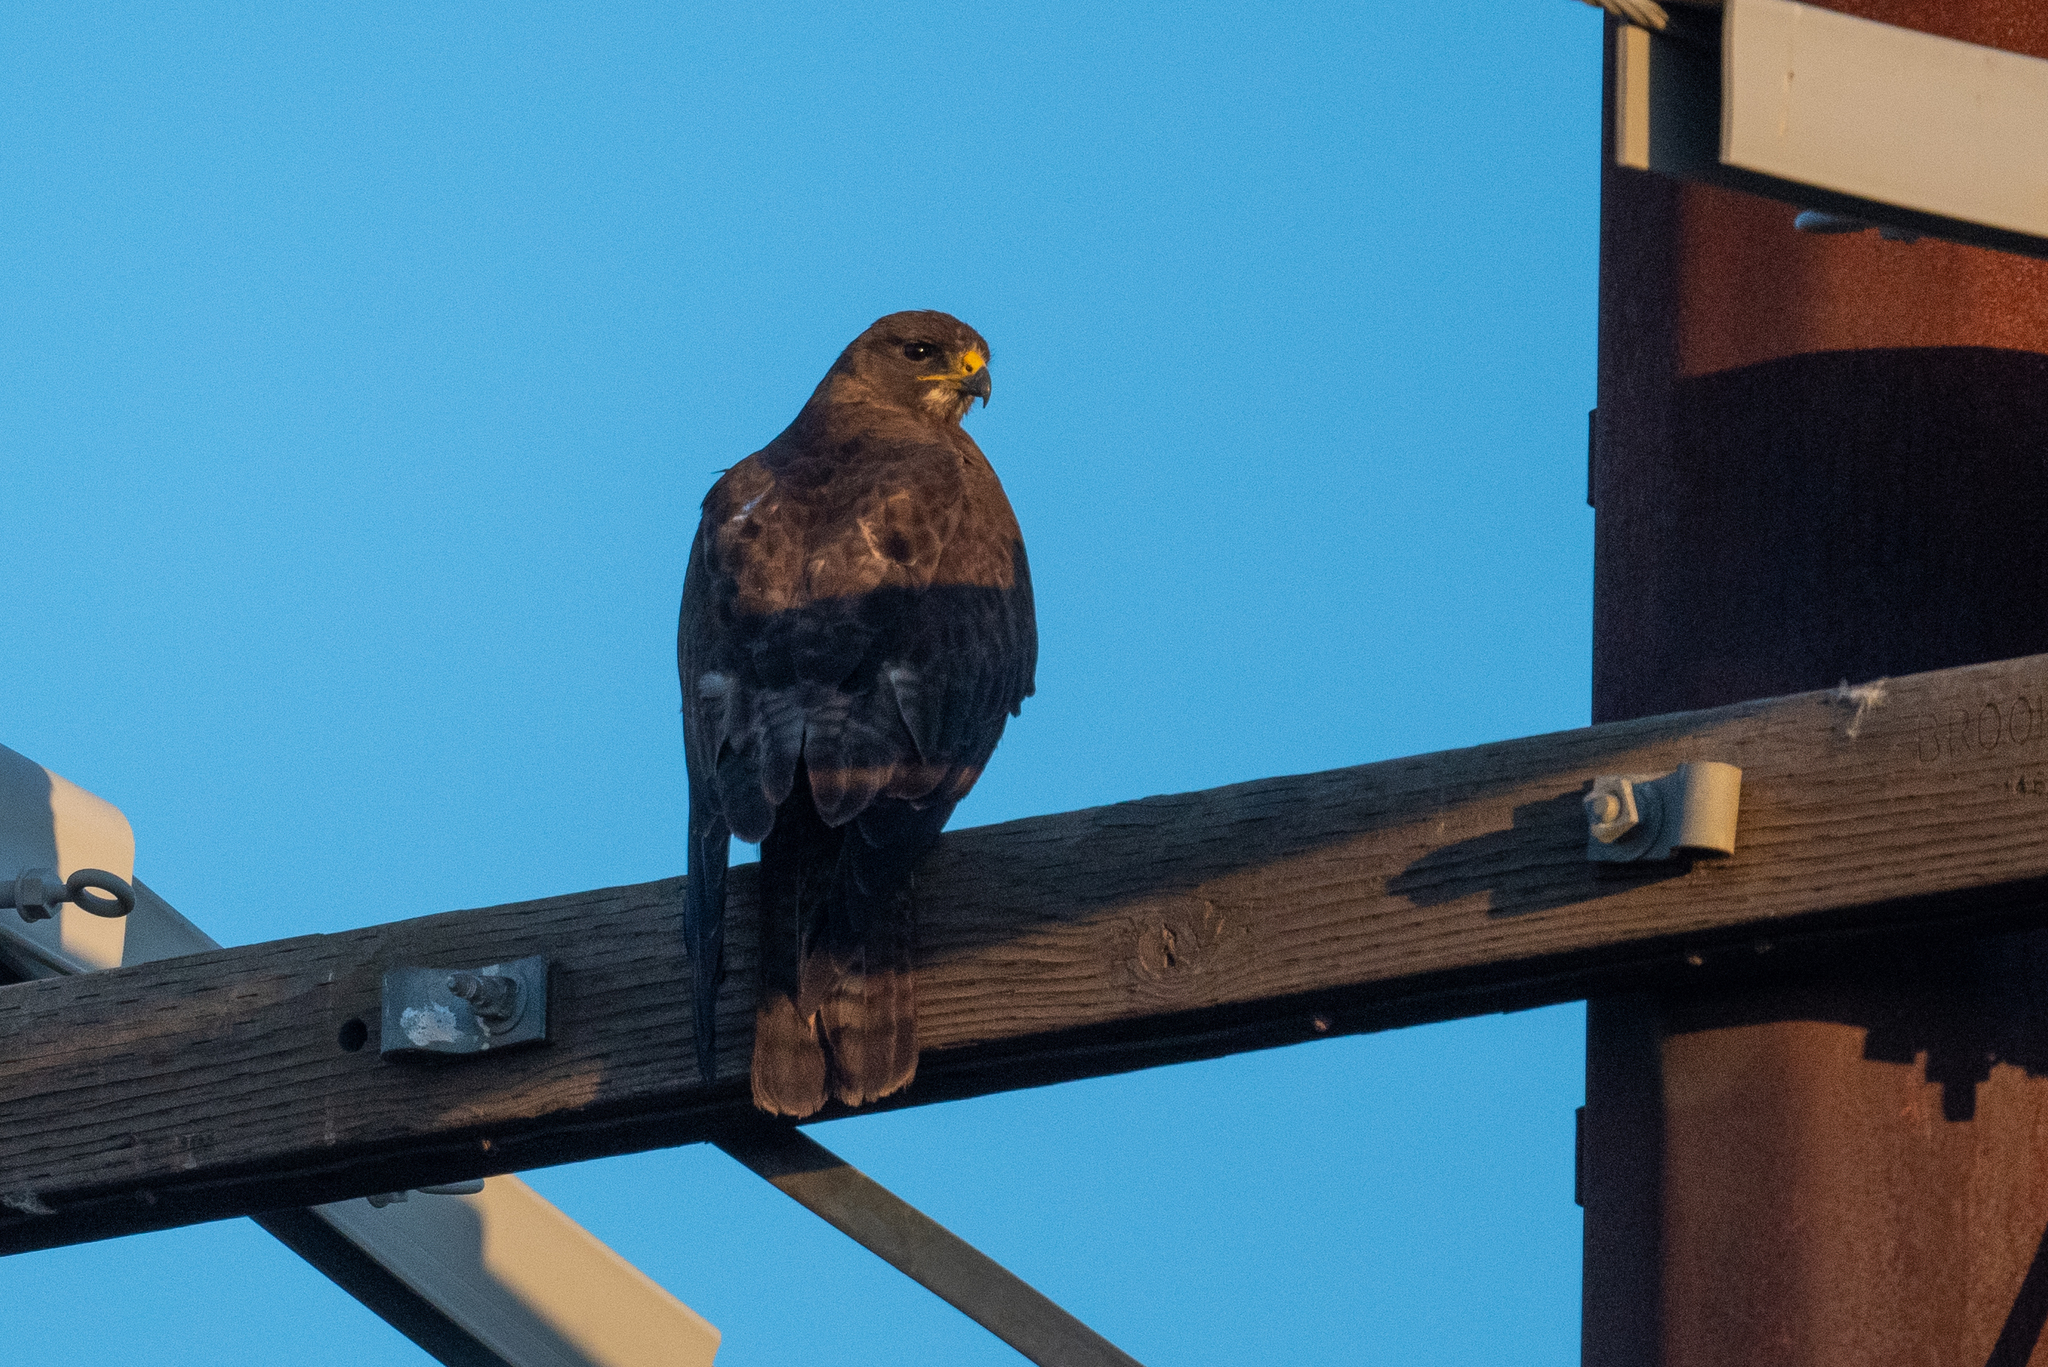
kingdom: Animalia
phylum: Chordata
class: Aves
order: Accipitriformes
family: Accipitridae
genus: Buteo
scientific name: Buteo swainsoni
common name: Swainson's hawk
